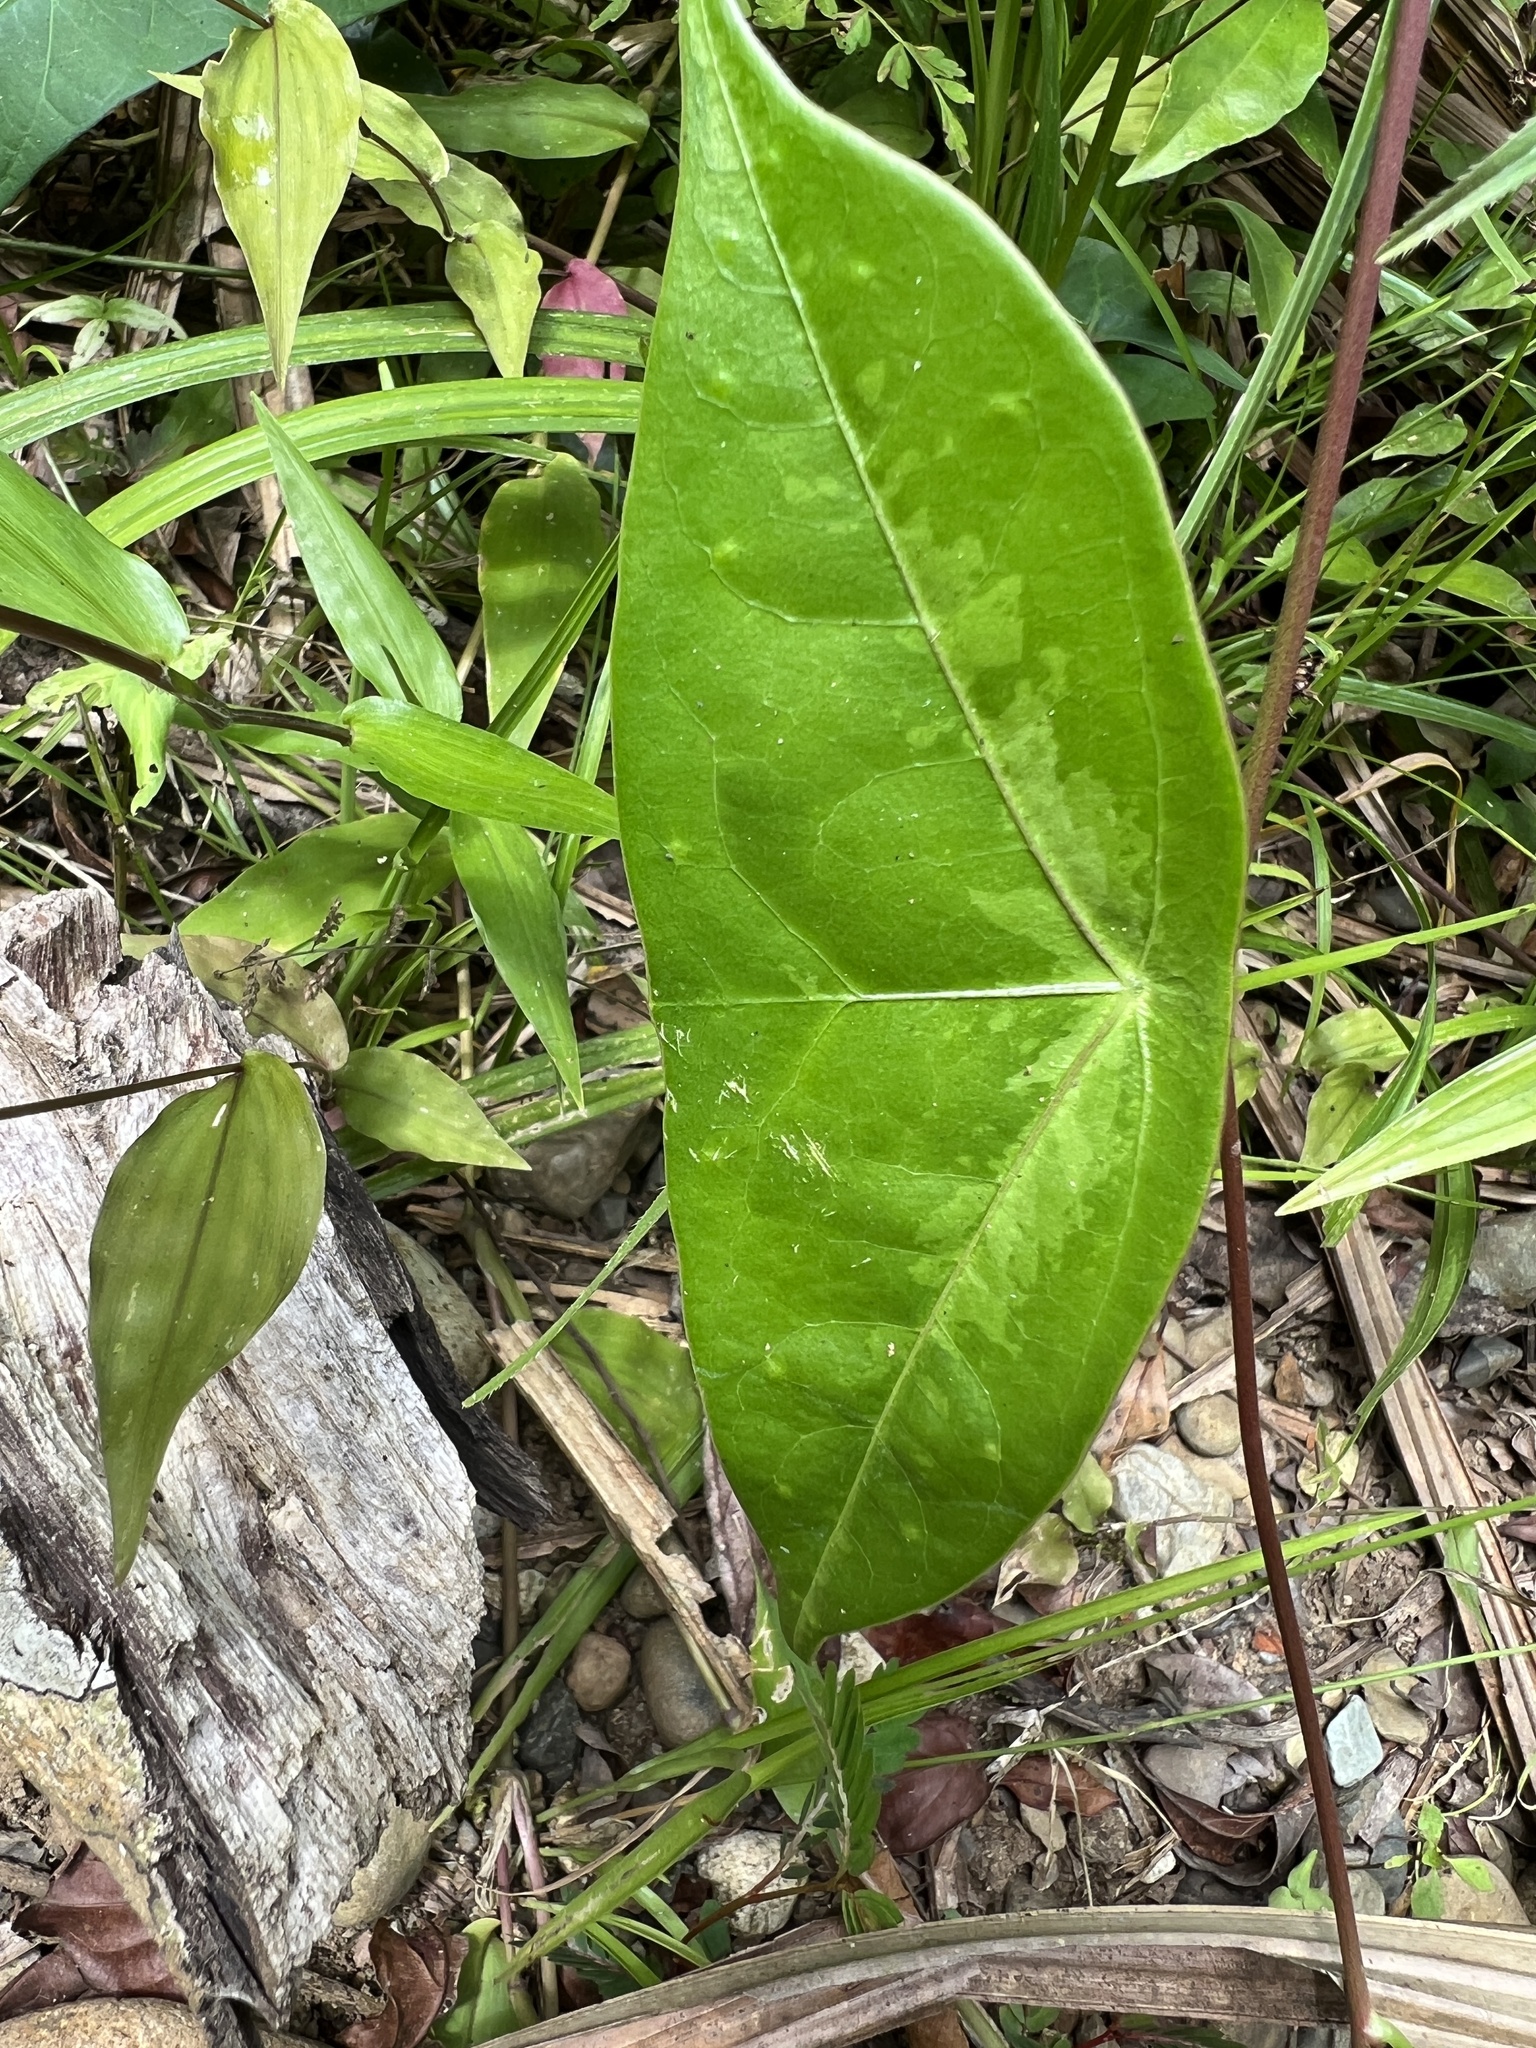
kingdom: Plantae
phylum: Tracheophyta
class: Magnoliopsida
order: Malpighiales
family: Passifloraceae
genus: Passiflora
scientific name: Passiflora megacoriacea
